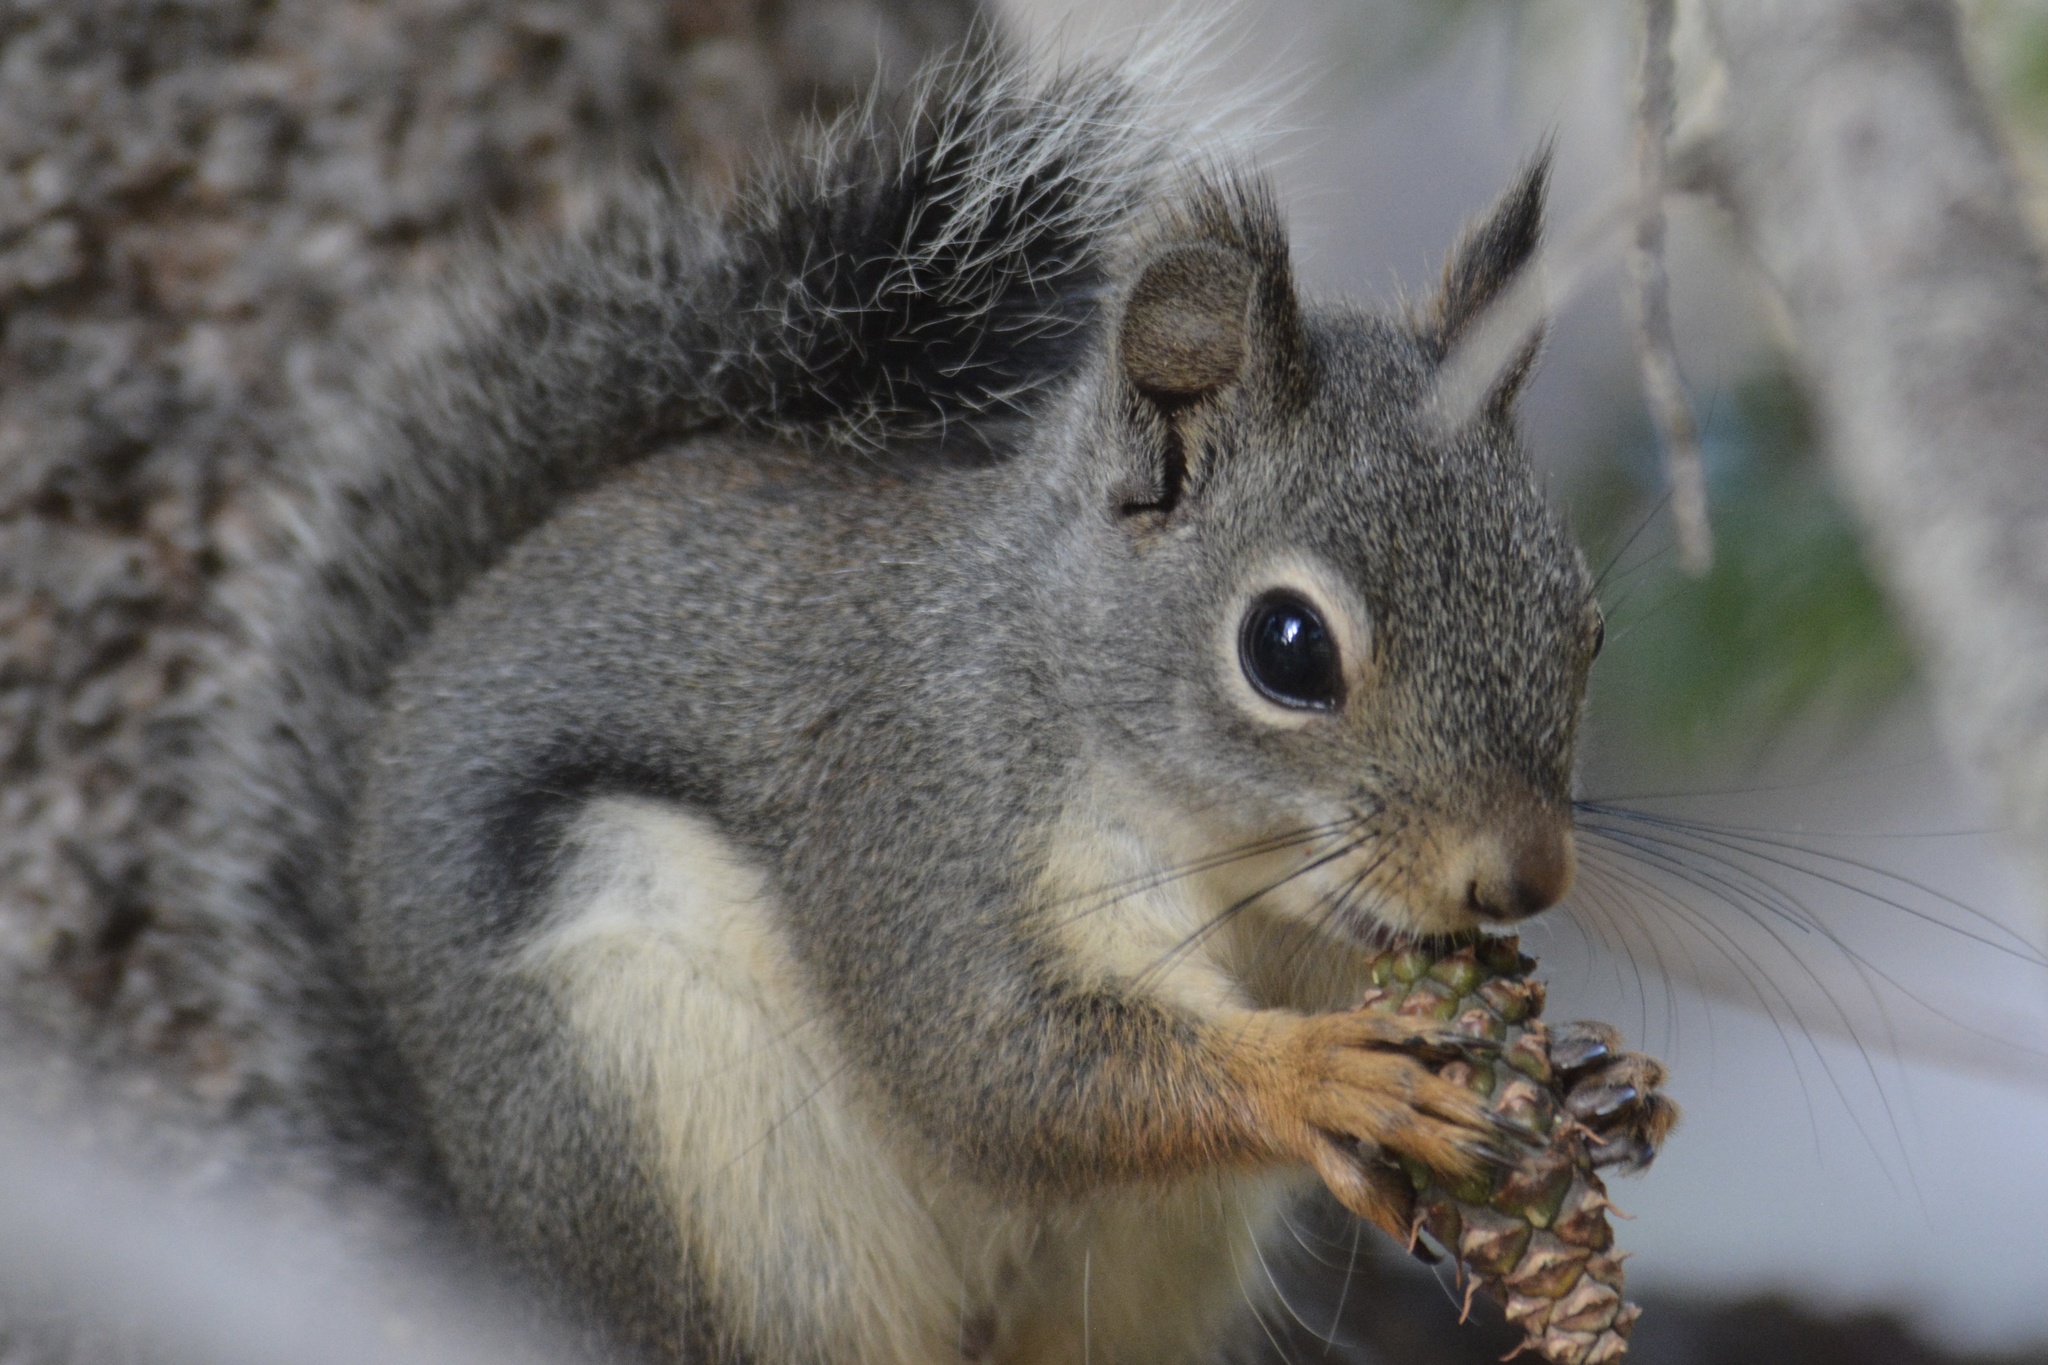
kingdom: Animalia
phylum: Chordata
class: Mammalia
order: Rodentia
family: Sciuridae
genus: Tamiasciurus
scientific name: Tamiasciurus douglasii
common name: Douglas's squirrel
